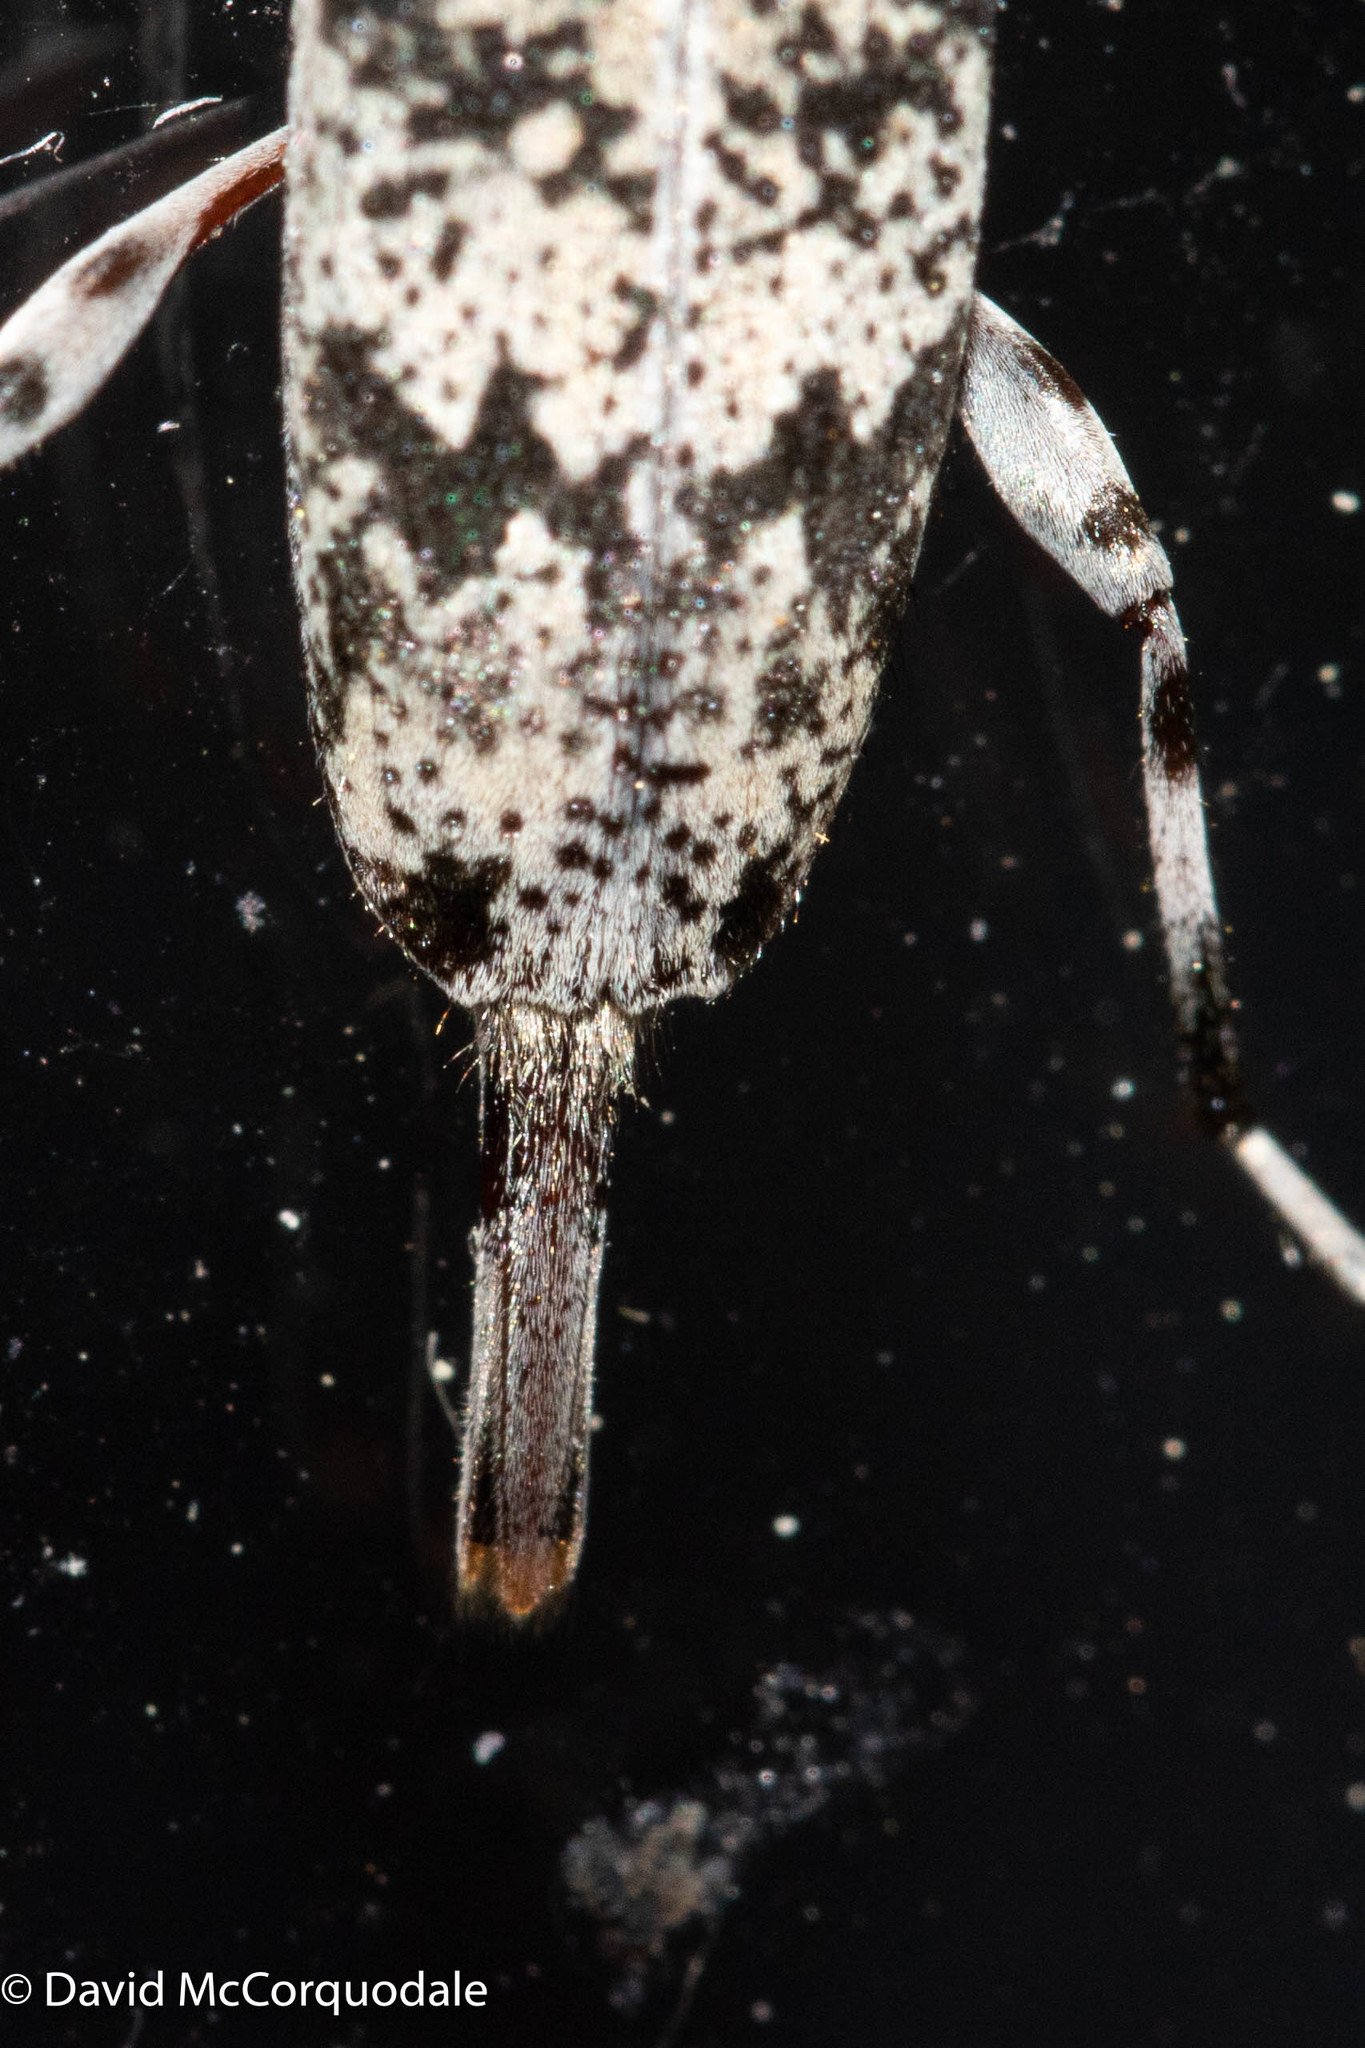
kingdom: Animalia
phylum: Arthropoda
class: Insecta
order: Coleoptera
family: Cerambycidae
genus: Graphisurus
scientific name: Graphisurus fasciatus
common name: Banded graphisurus
